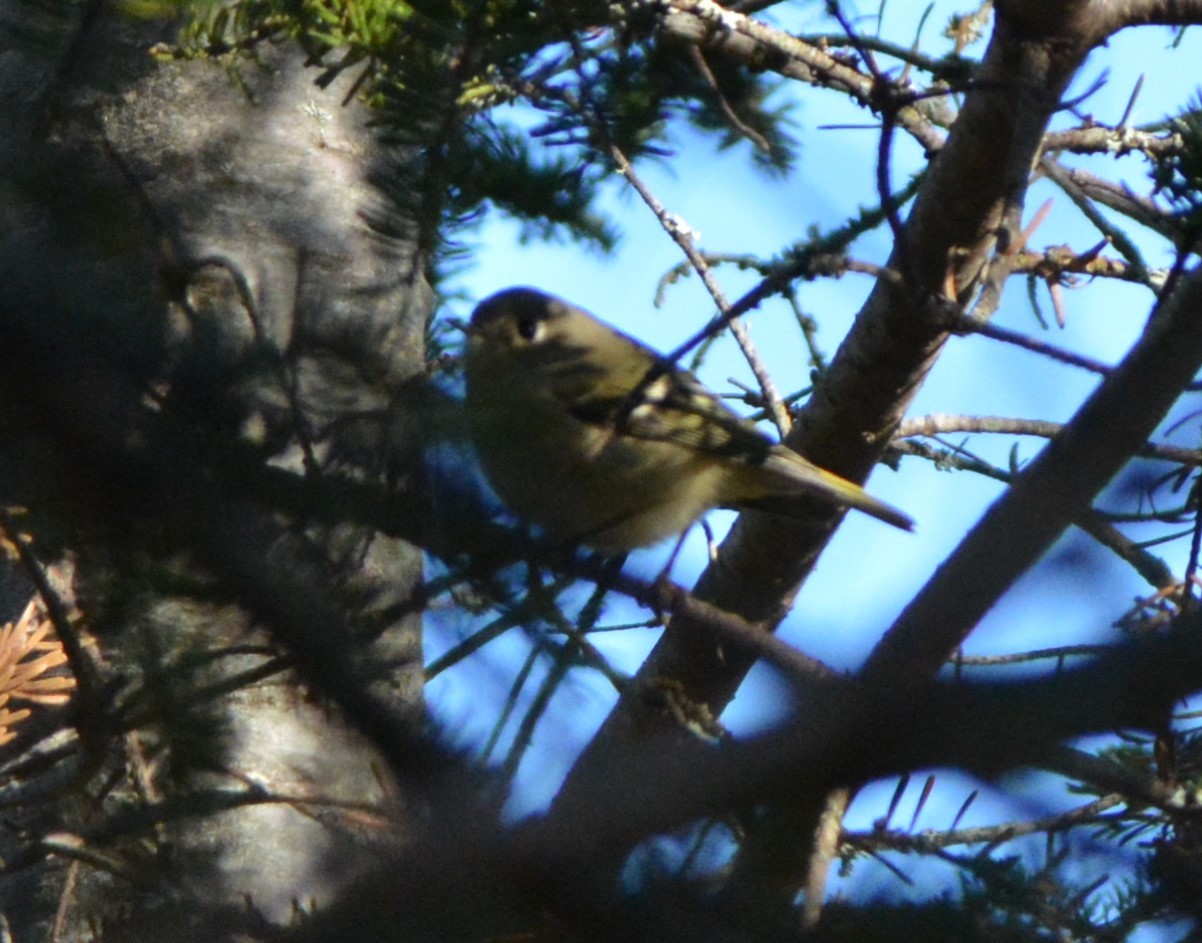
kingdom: Animalia
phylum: Chordata
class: Aves
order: Passeriformes
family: Regulidae
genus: Regulus
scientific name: Regulus calendula
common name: Ruby-crowned kinglet
